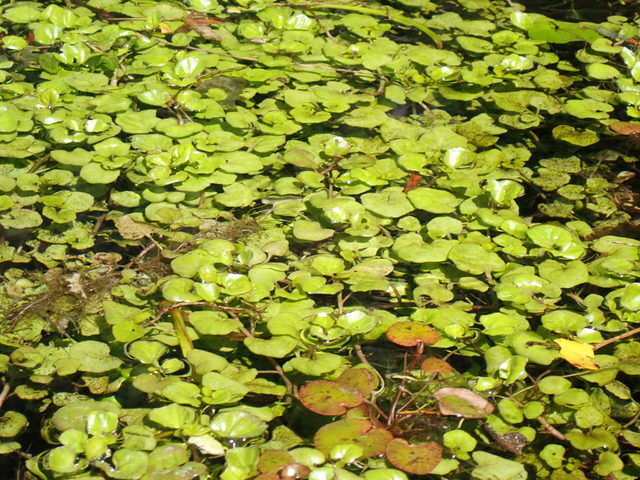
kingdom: Plantae
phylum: Tracheophyta
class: Magnoliopsida
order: Brassicales
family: Brassicaceae
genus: Nasturtium
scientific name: Nasturtium floridanum
